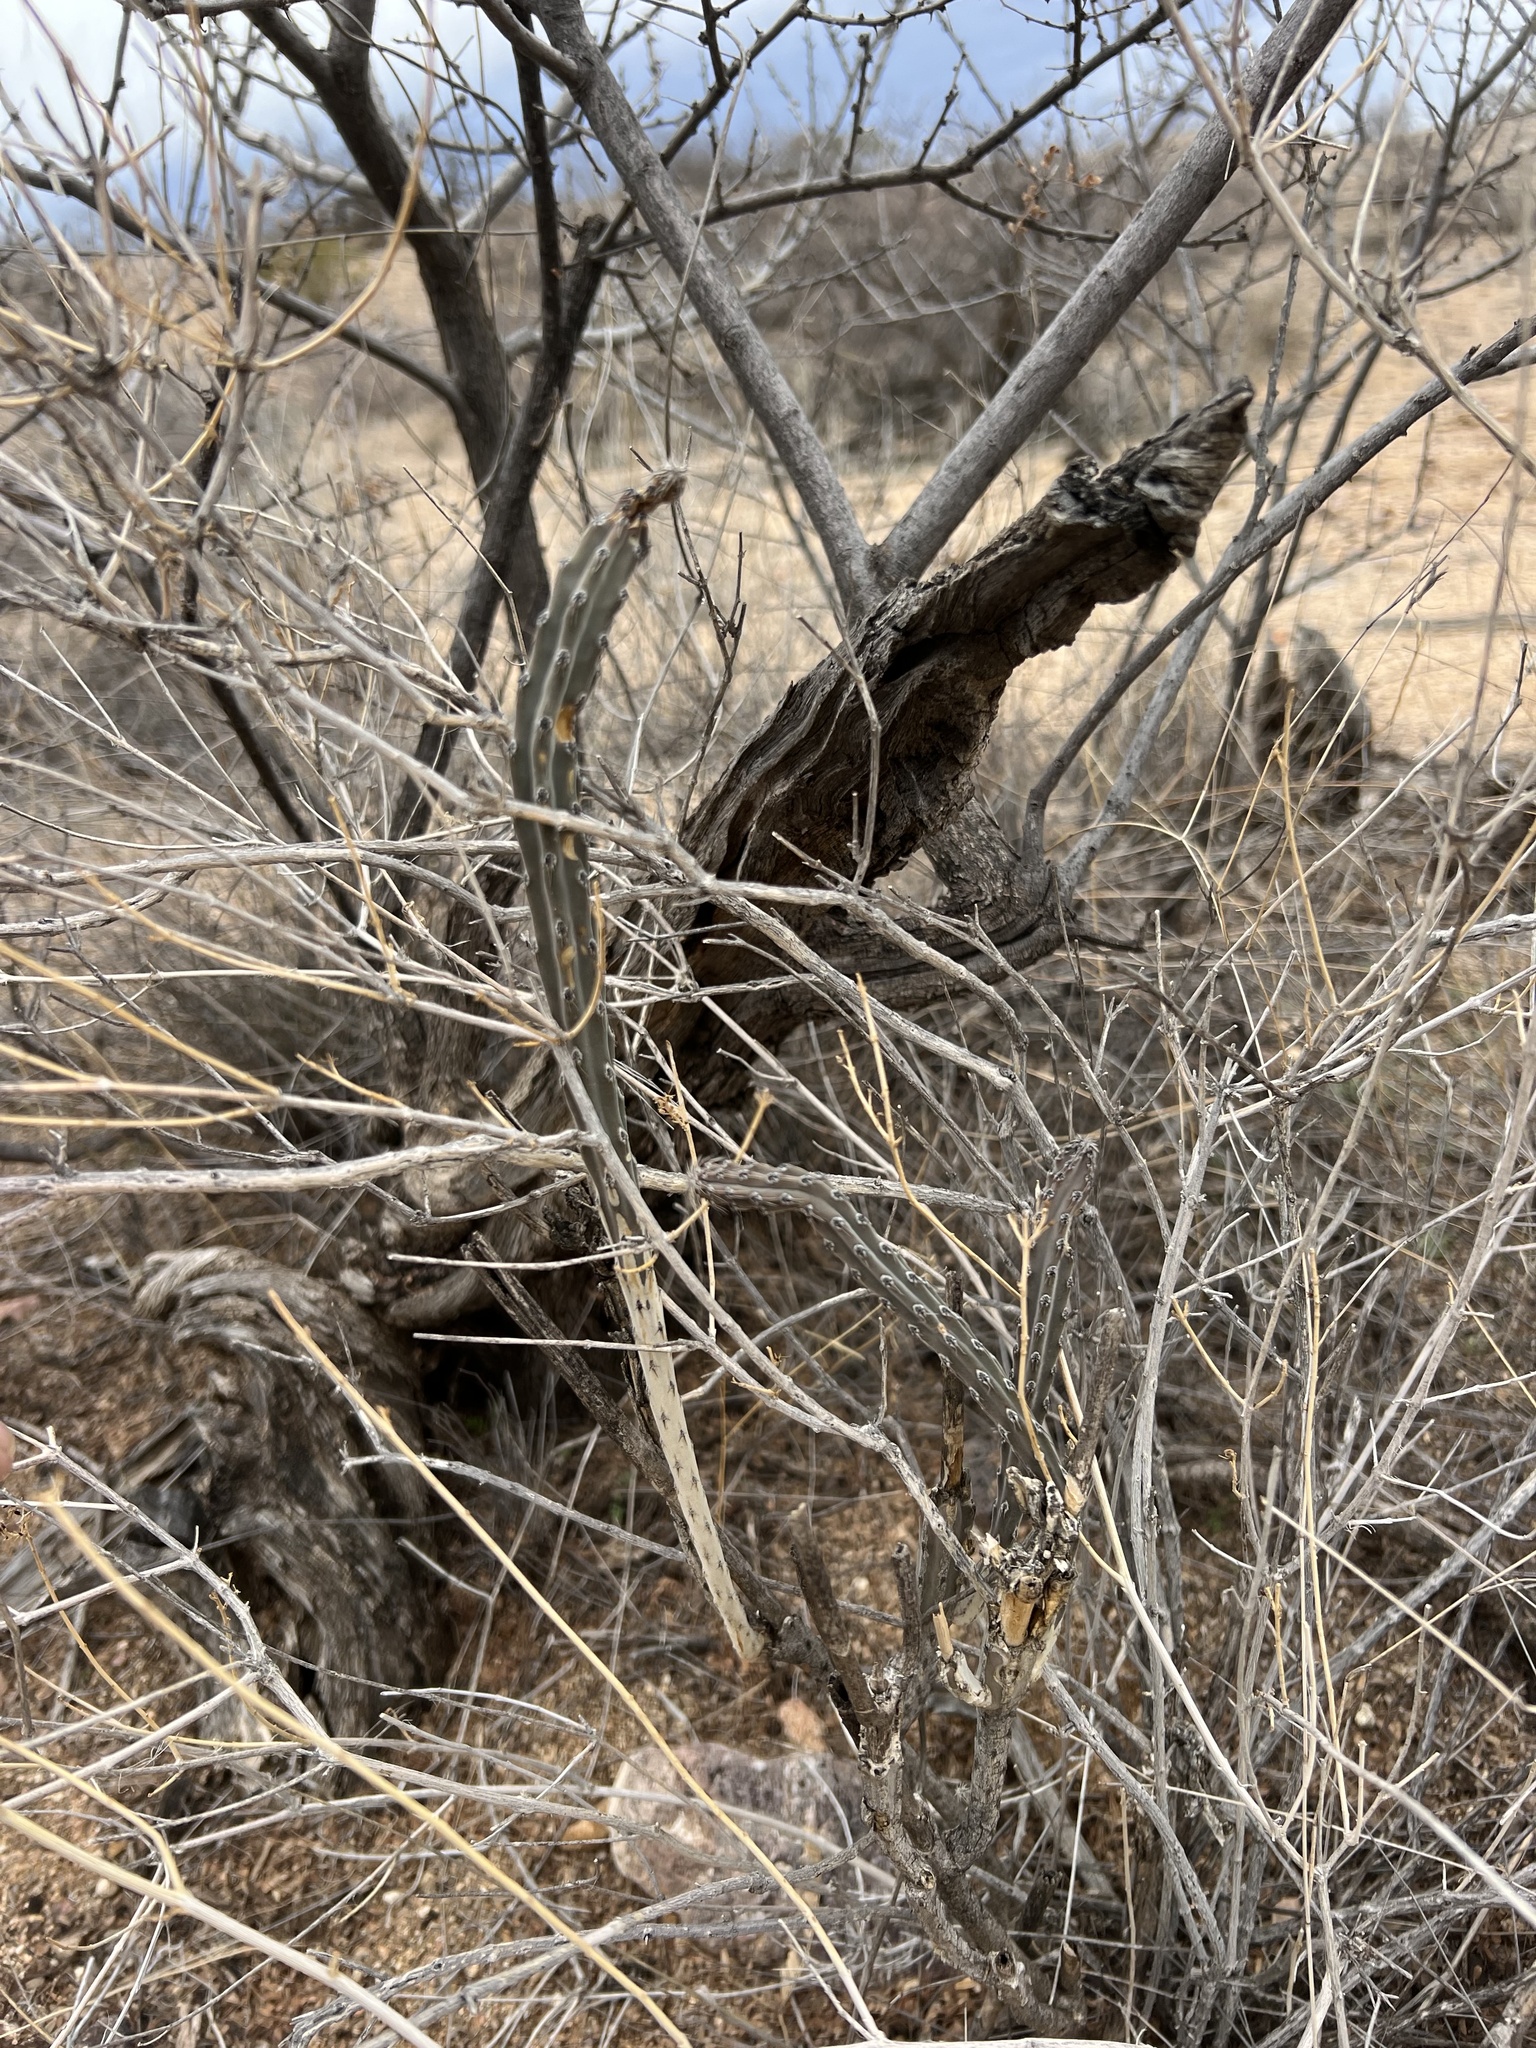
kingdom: Plantae
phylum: Tracheophyta
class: Magnoliopsida
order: Caryophyllales
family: Cactaceae
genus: Peniocereus
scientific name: Peniocereus greggii
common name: Desert night-blooming cereus
